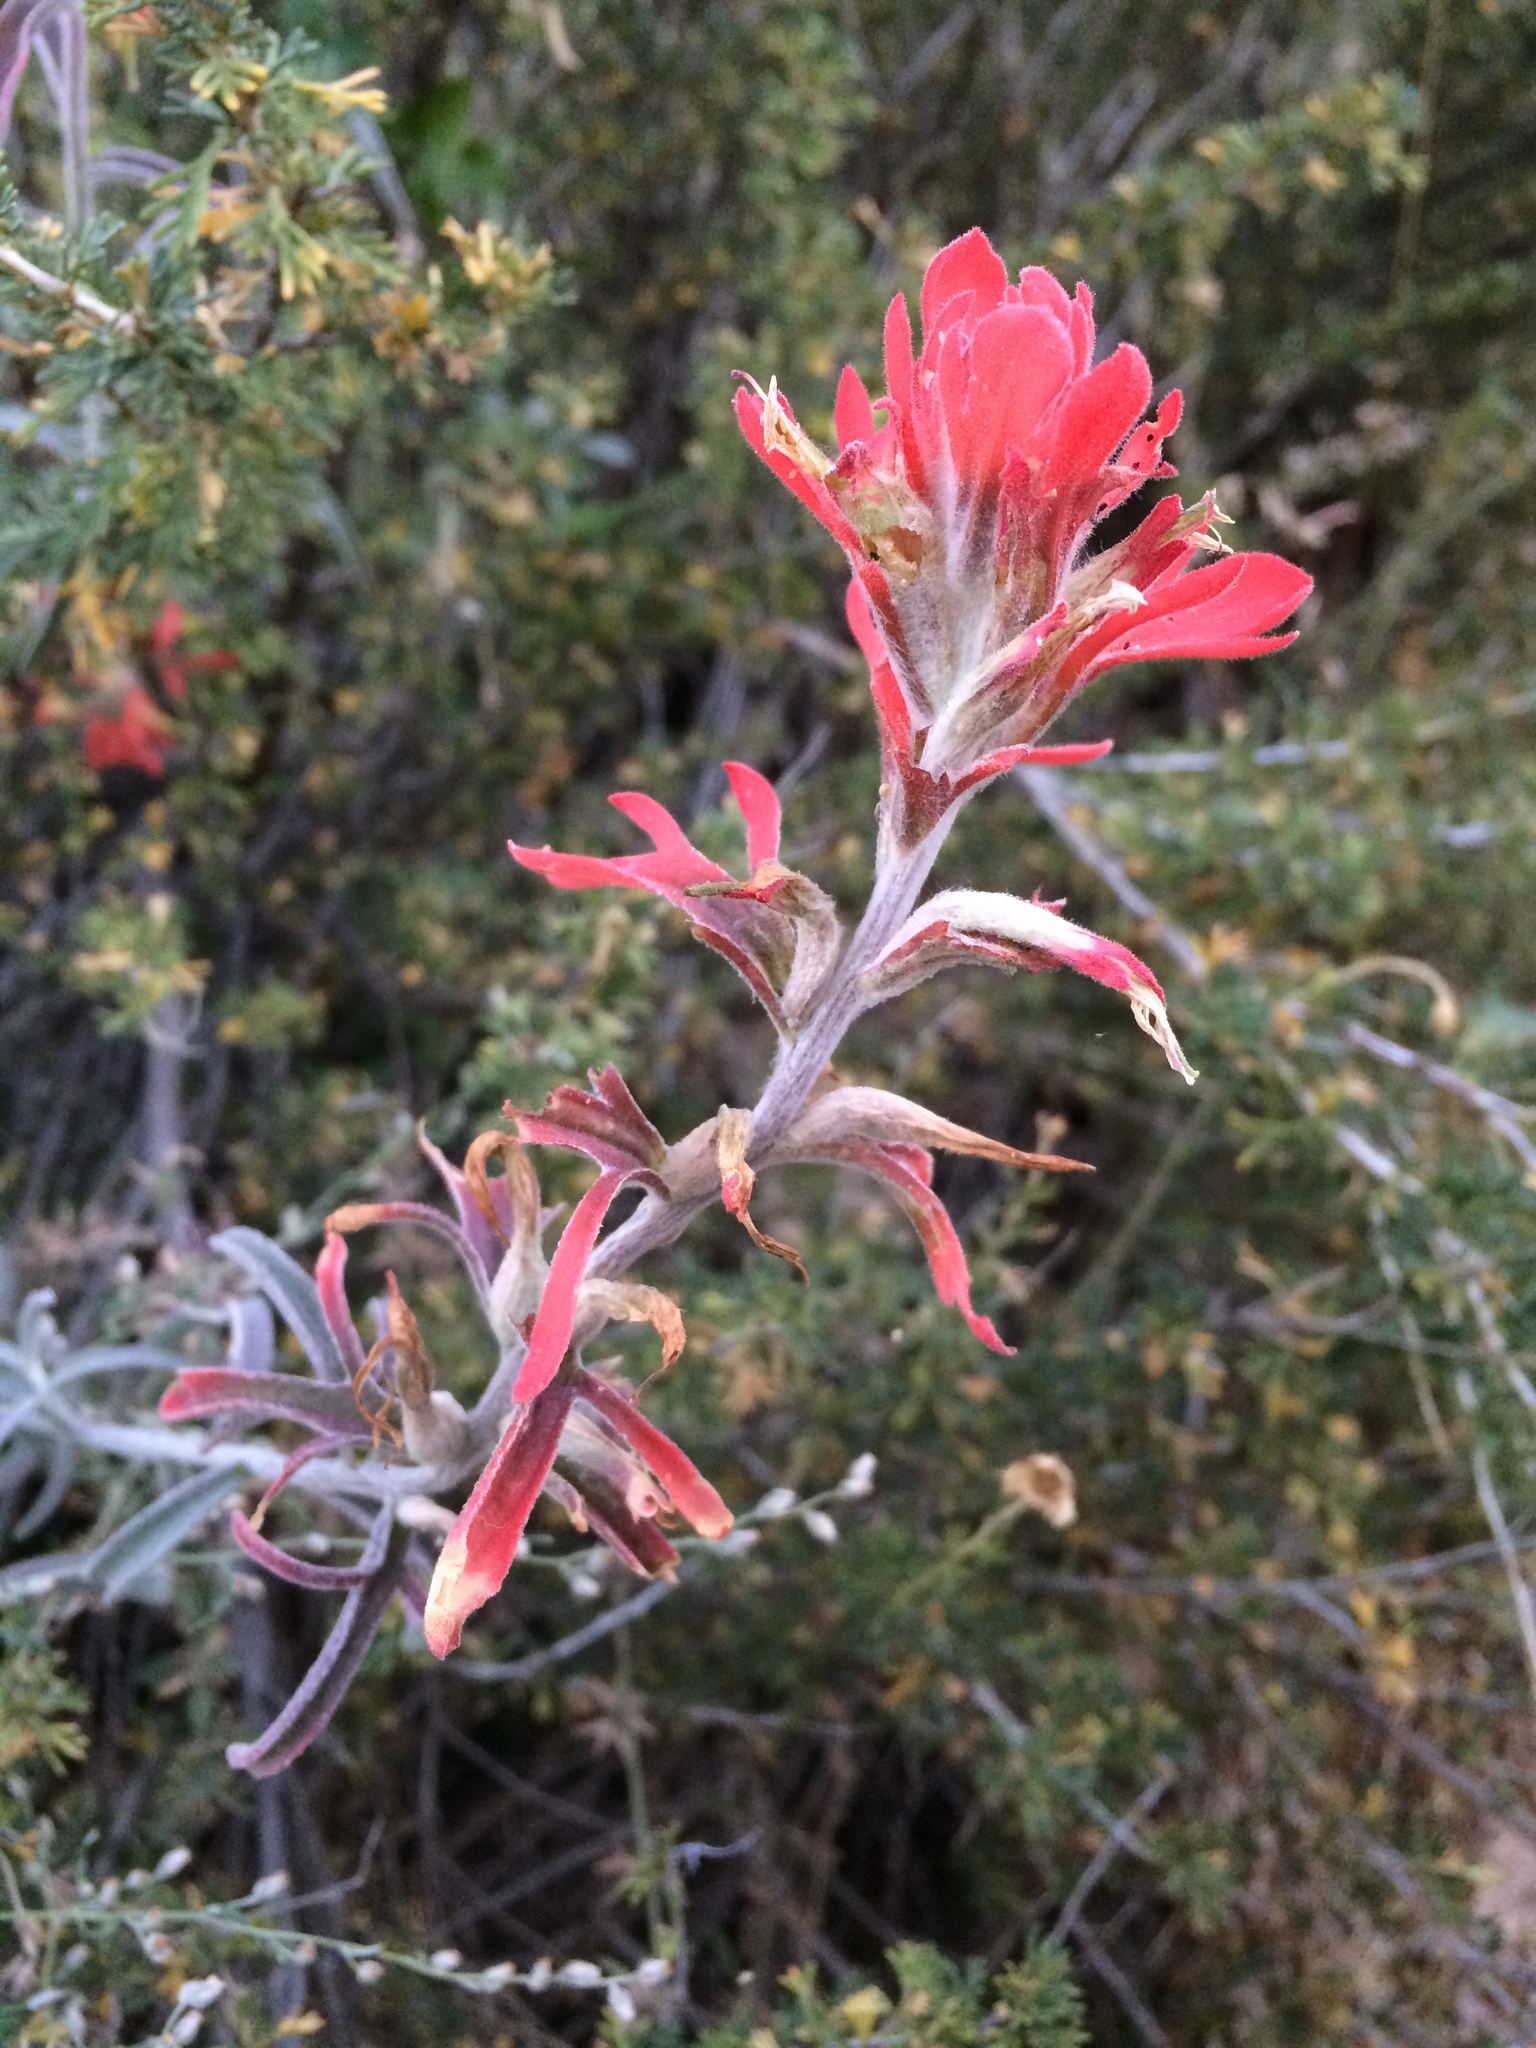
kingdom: Plantae
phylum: Tracheophyta
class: Magnoliopsida
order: Lamiales
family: Orobanchaceae
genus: Castilleja
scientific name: Castilleja lanata
